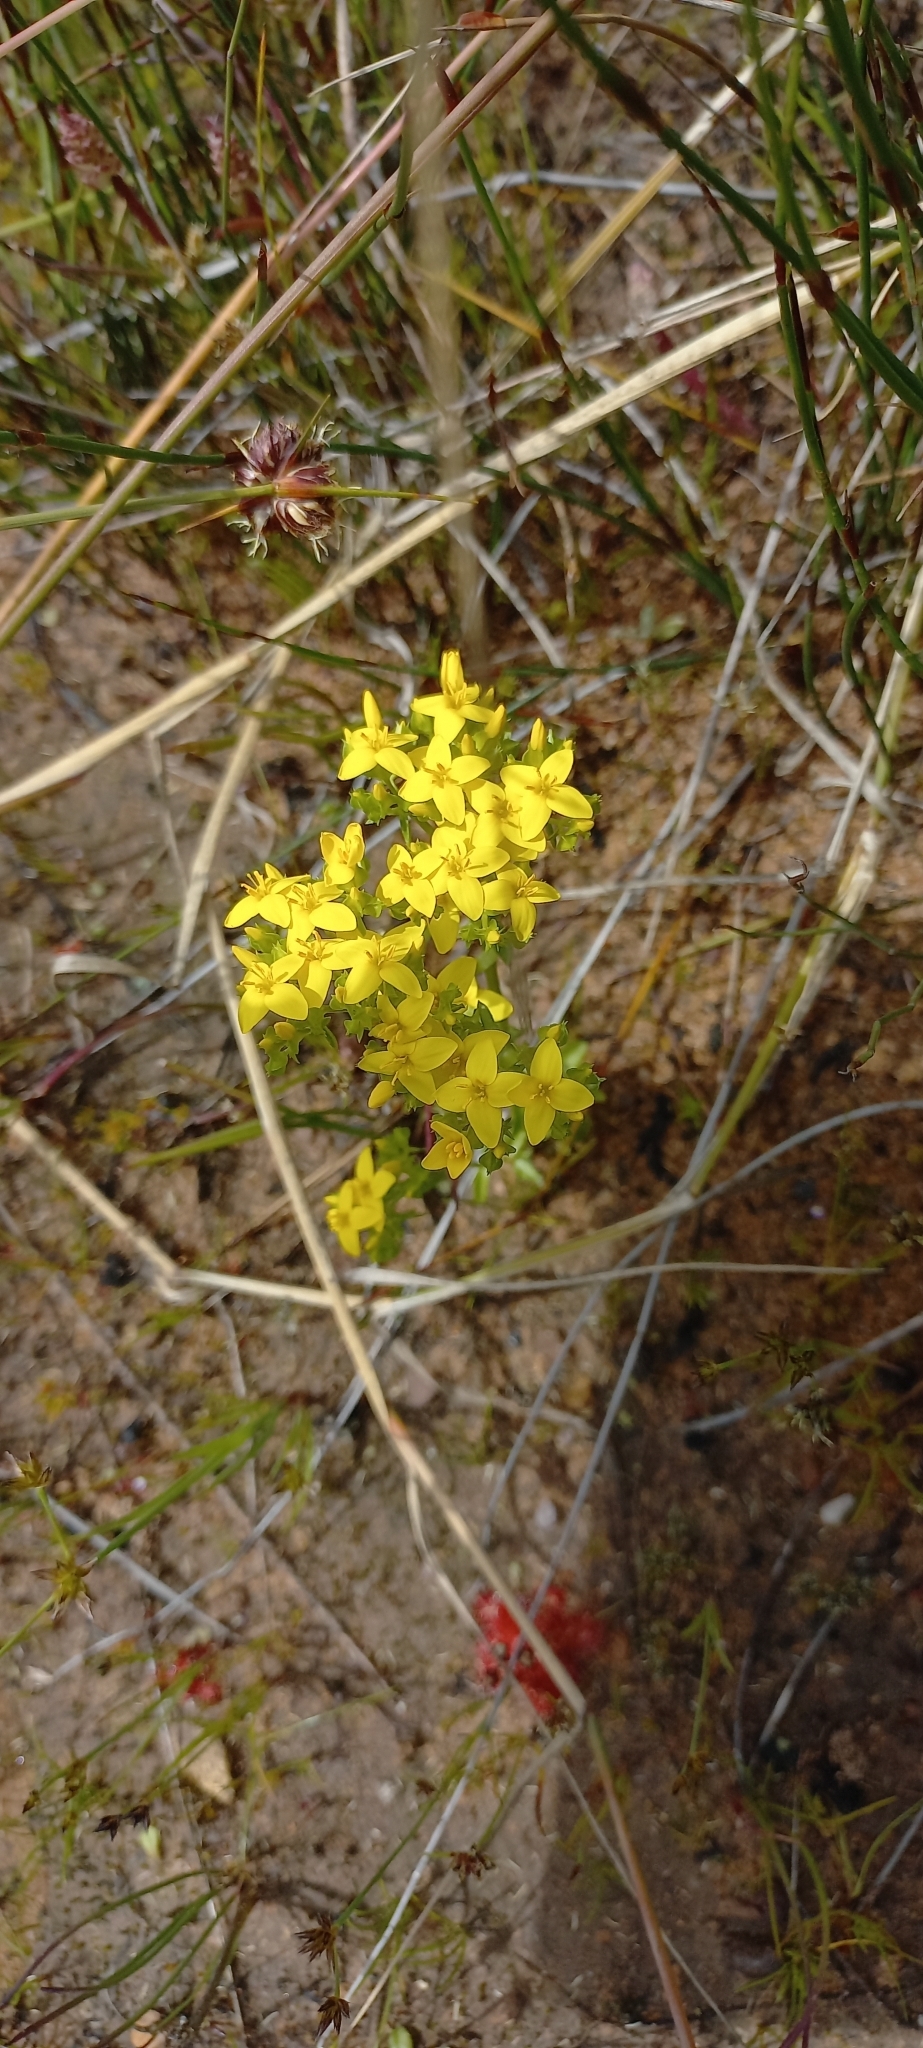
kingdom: Plantae
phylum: Tracheophyta
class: Magnoliopsida
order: Gentianales
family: Gentianaceae
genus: Sebaea
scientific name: Sebaea aurea
